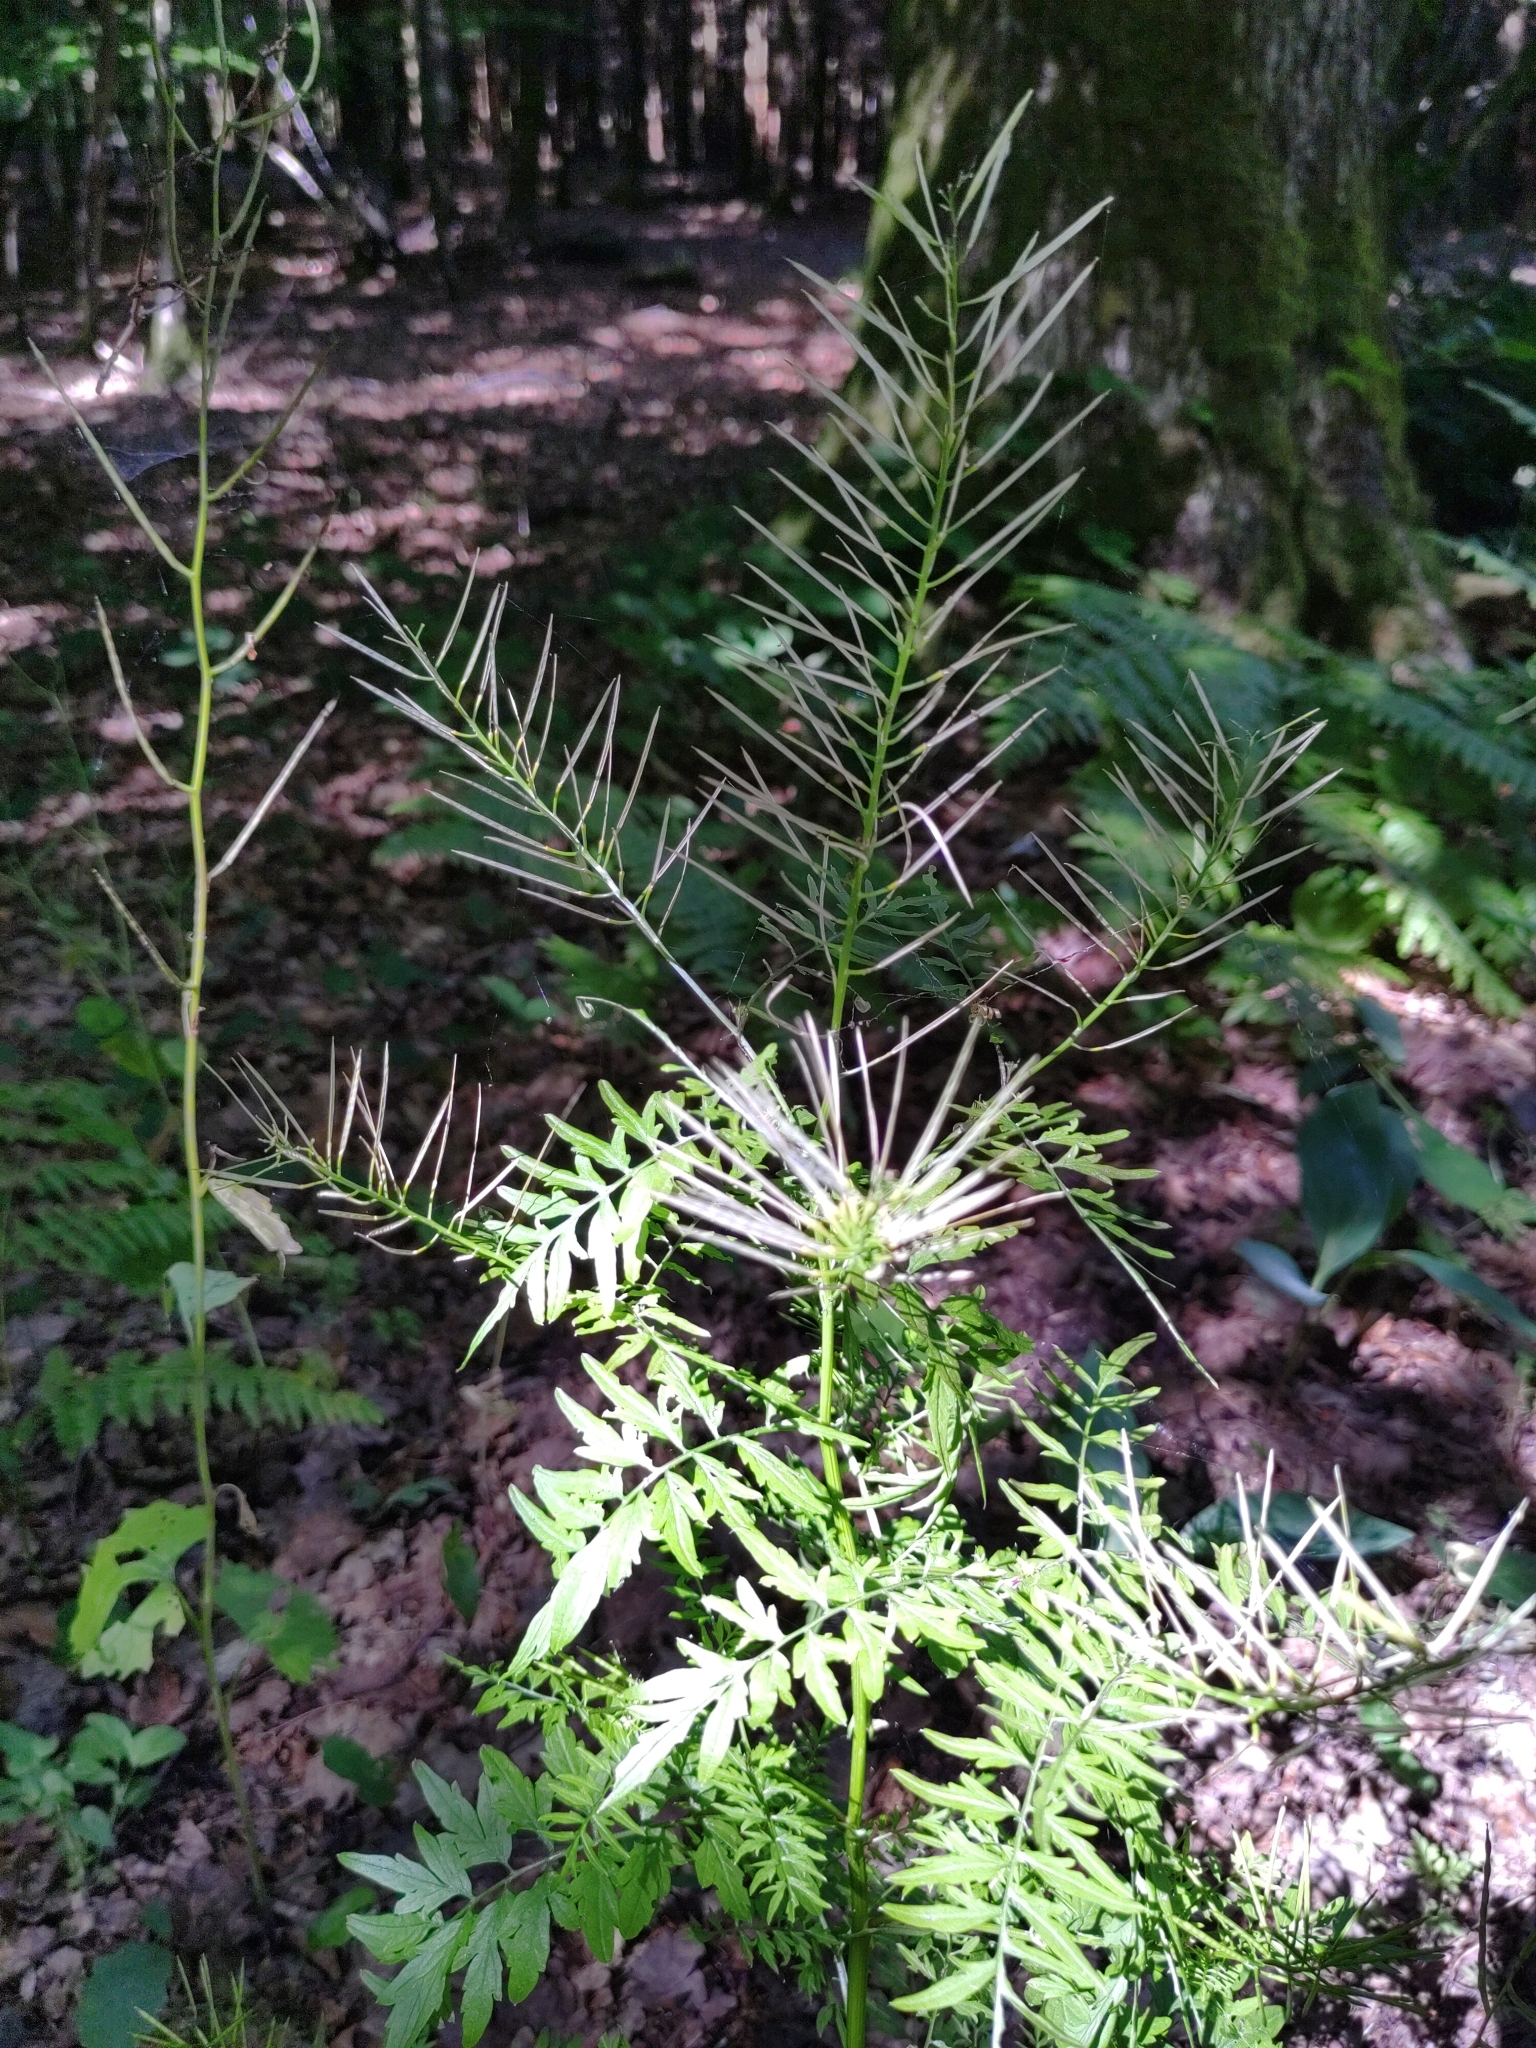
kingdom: Plantae
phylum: Tracheophyta
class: Magnoliopsida
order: Brassicales
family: Brassicaceae
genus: Cardamine
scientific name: Cardamine impatiens
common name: Narrow-leaved bitter-cress
